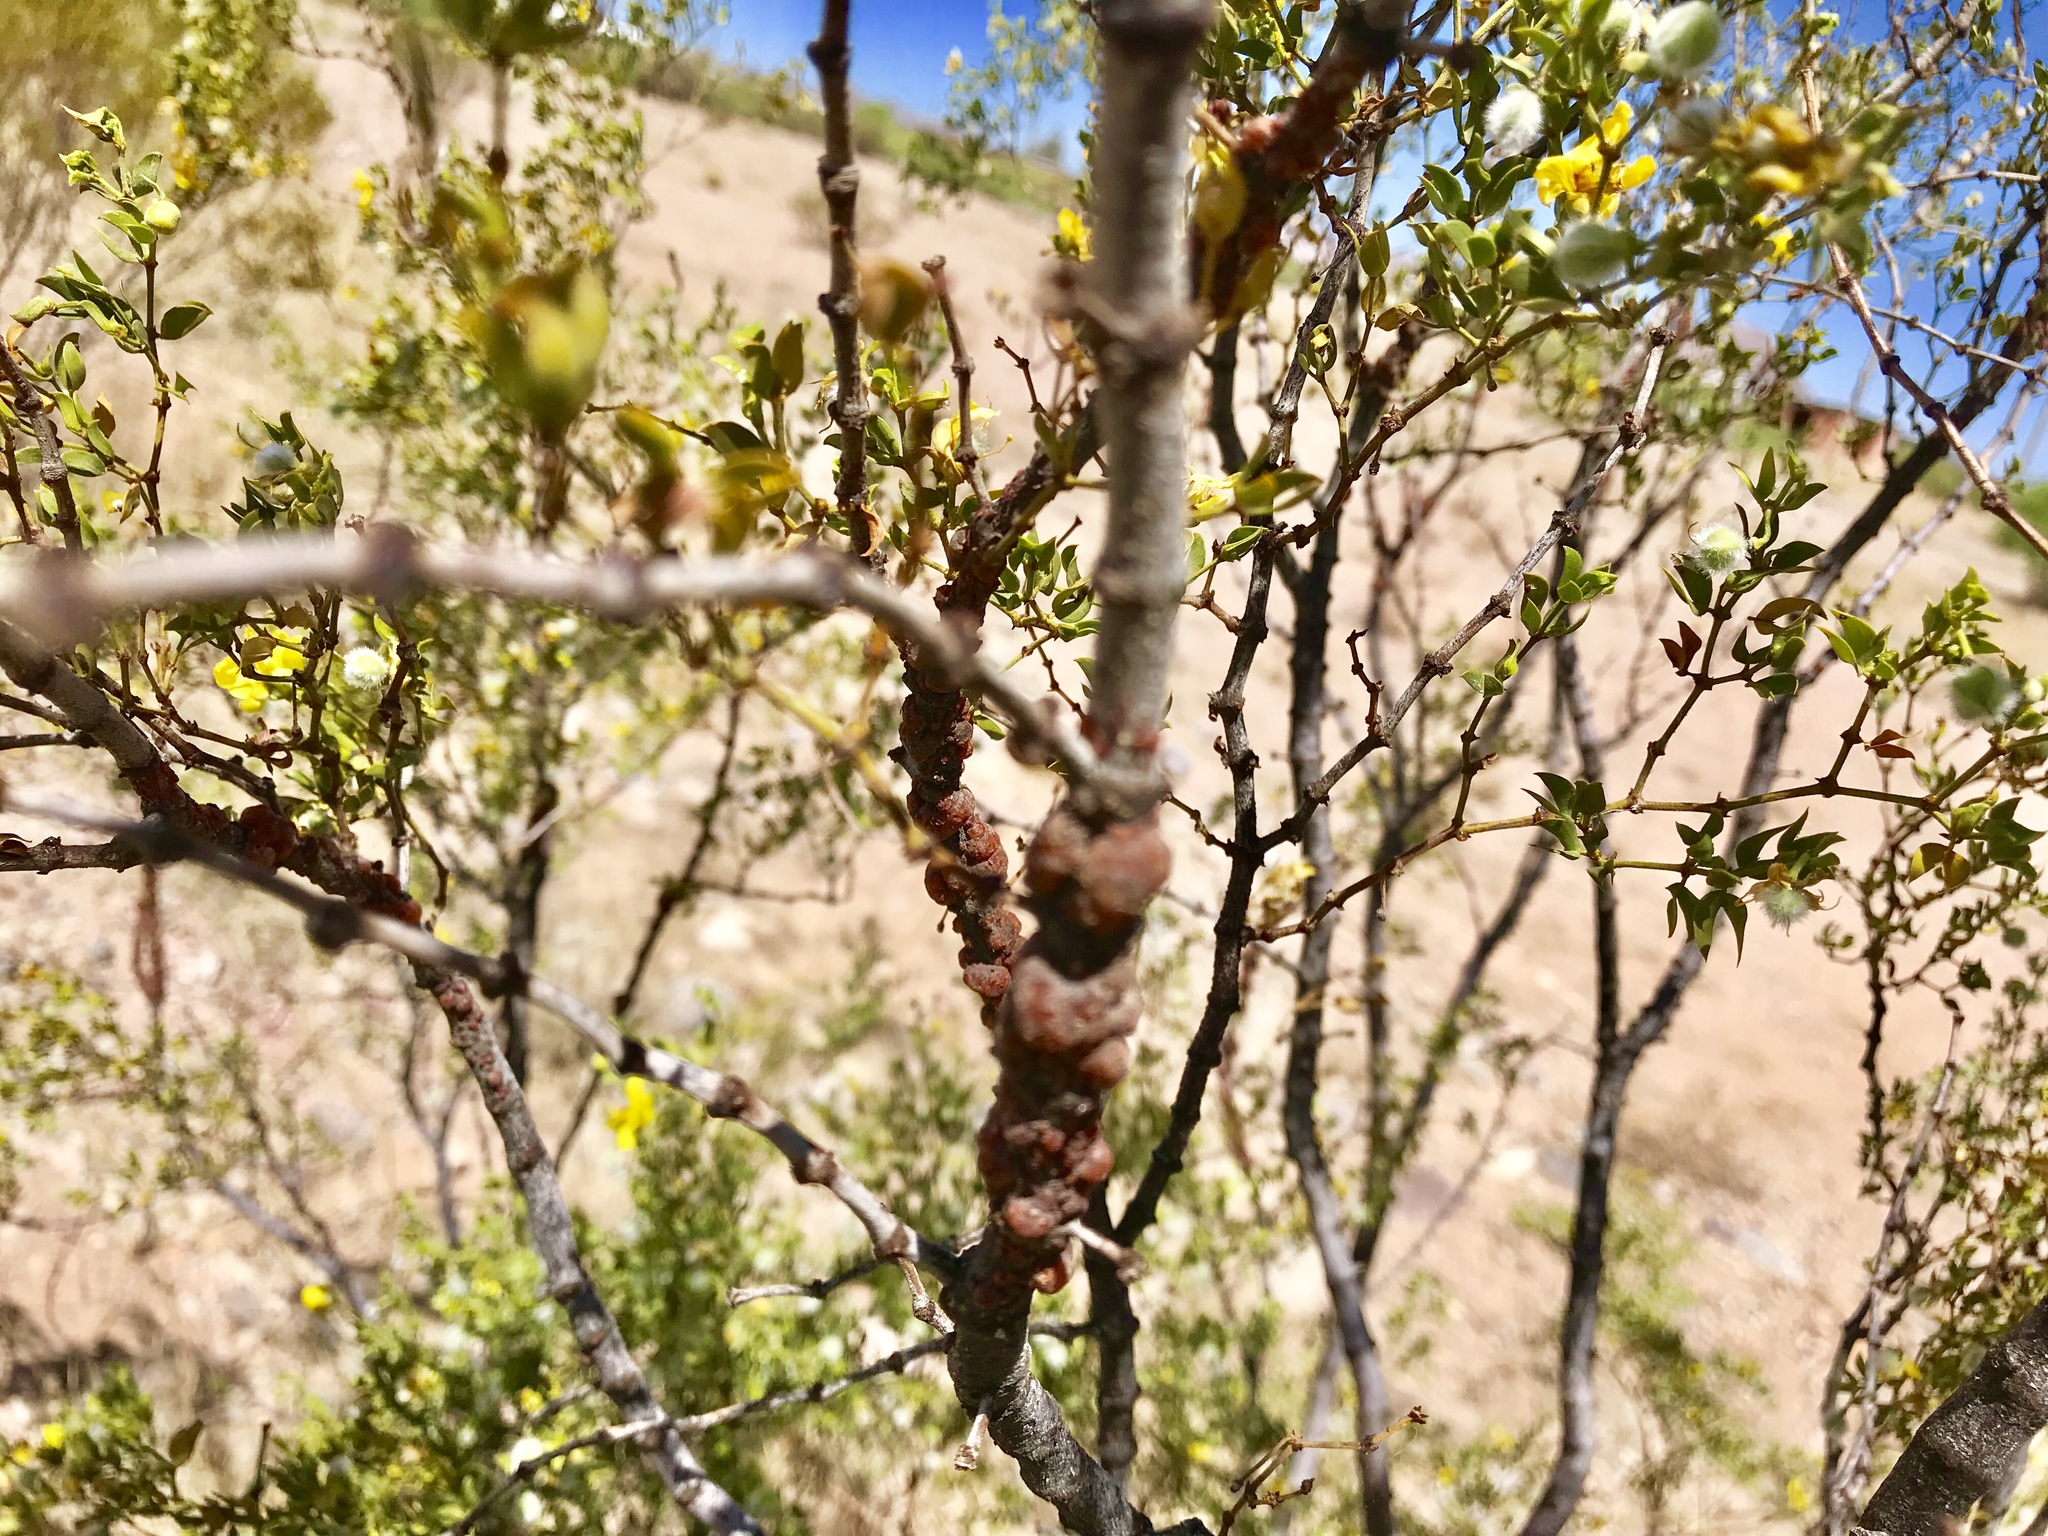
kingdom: Animalia
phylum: Arthropoda
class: Insecta
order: Hemiptera
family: Kerriidae
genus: Tachardiella
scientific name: Tachardiella larreae
